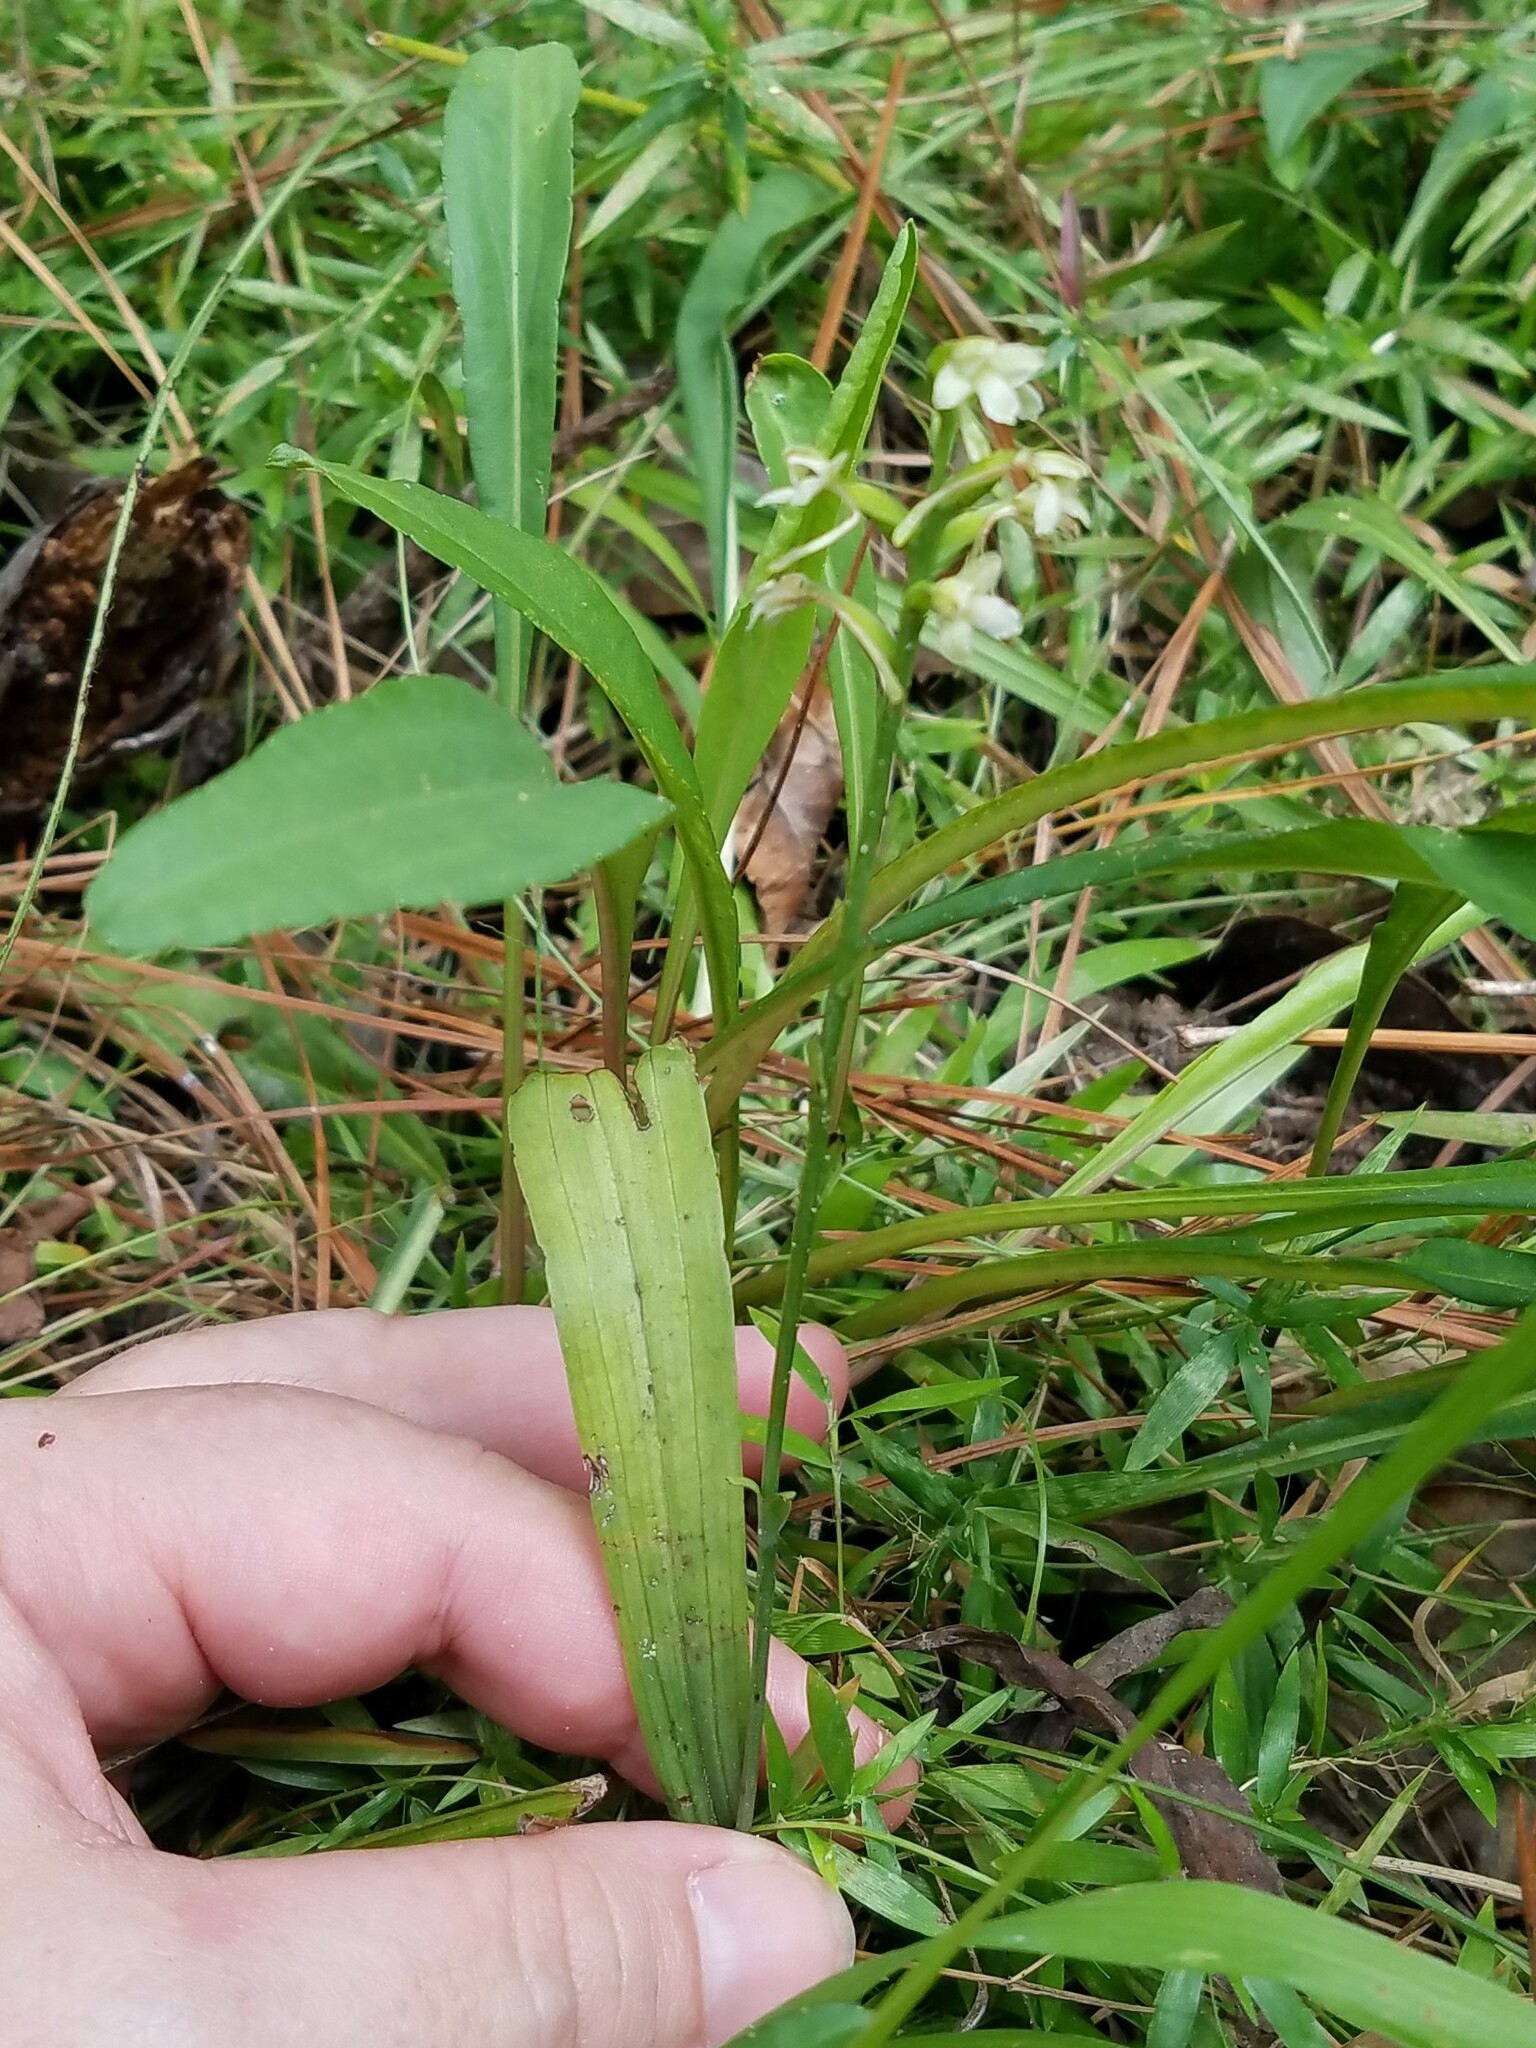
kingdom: Plantae
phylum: Tracheophyta
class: Liliopsida
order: Asparagales
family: Orchidaceae
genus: Platanthera
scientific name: Platanthera clavellata
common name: Club-spur orchid
